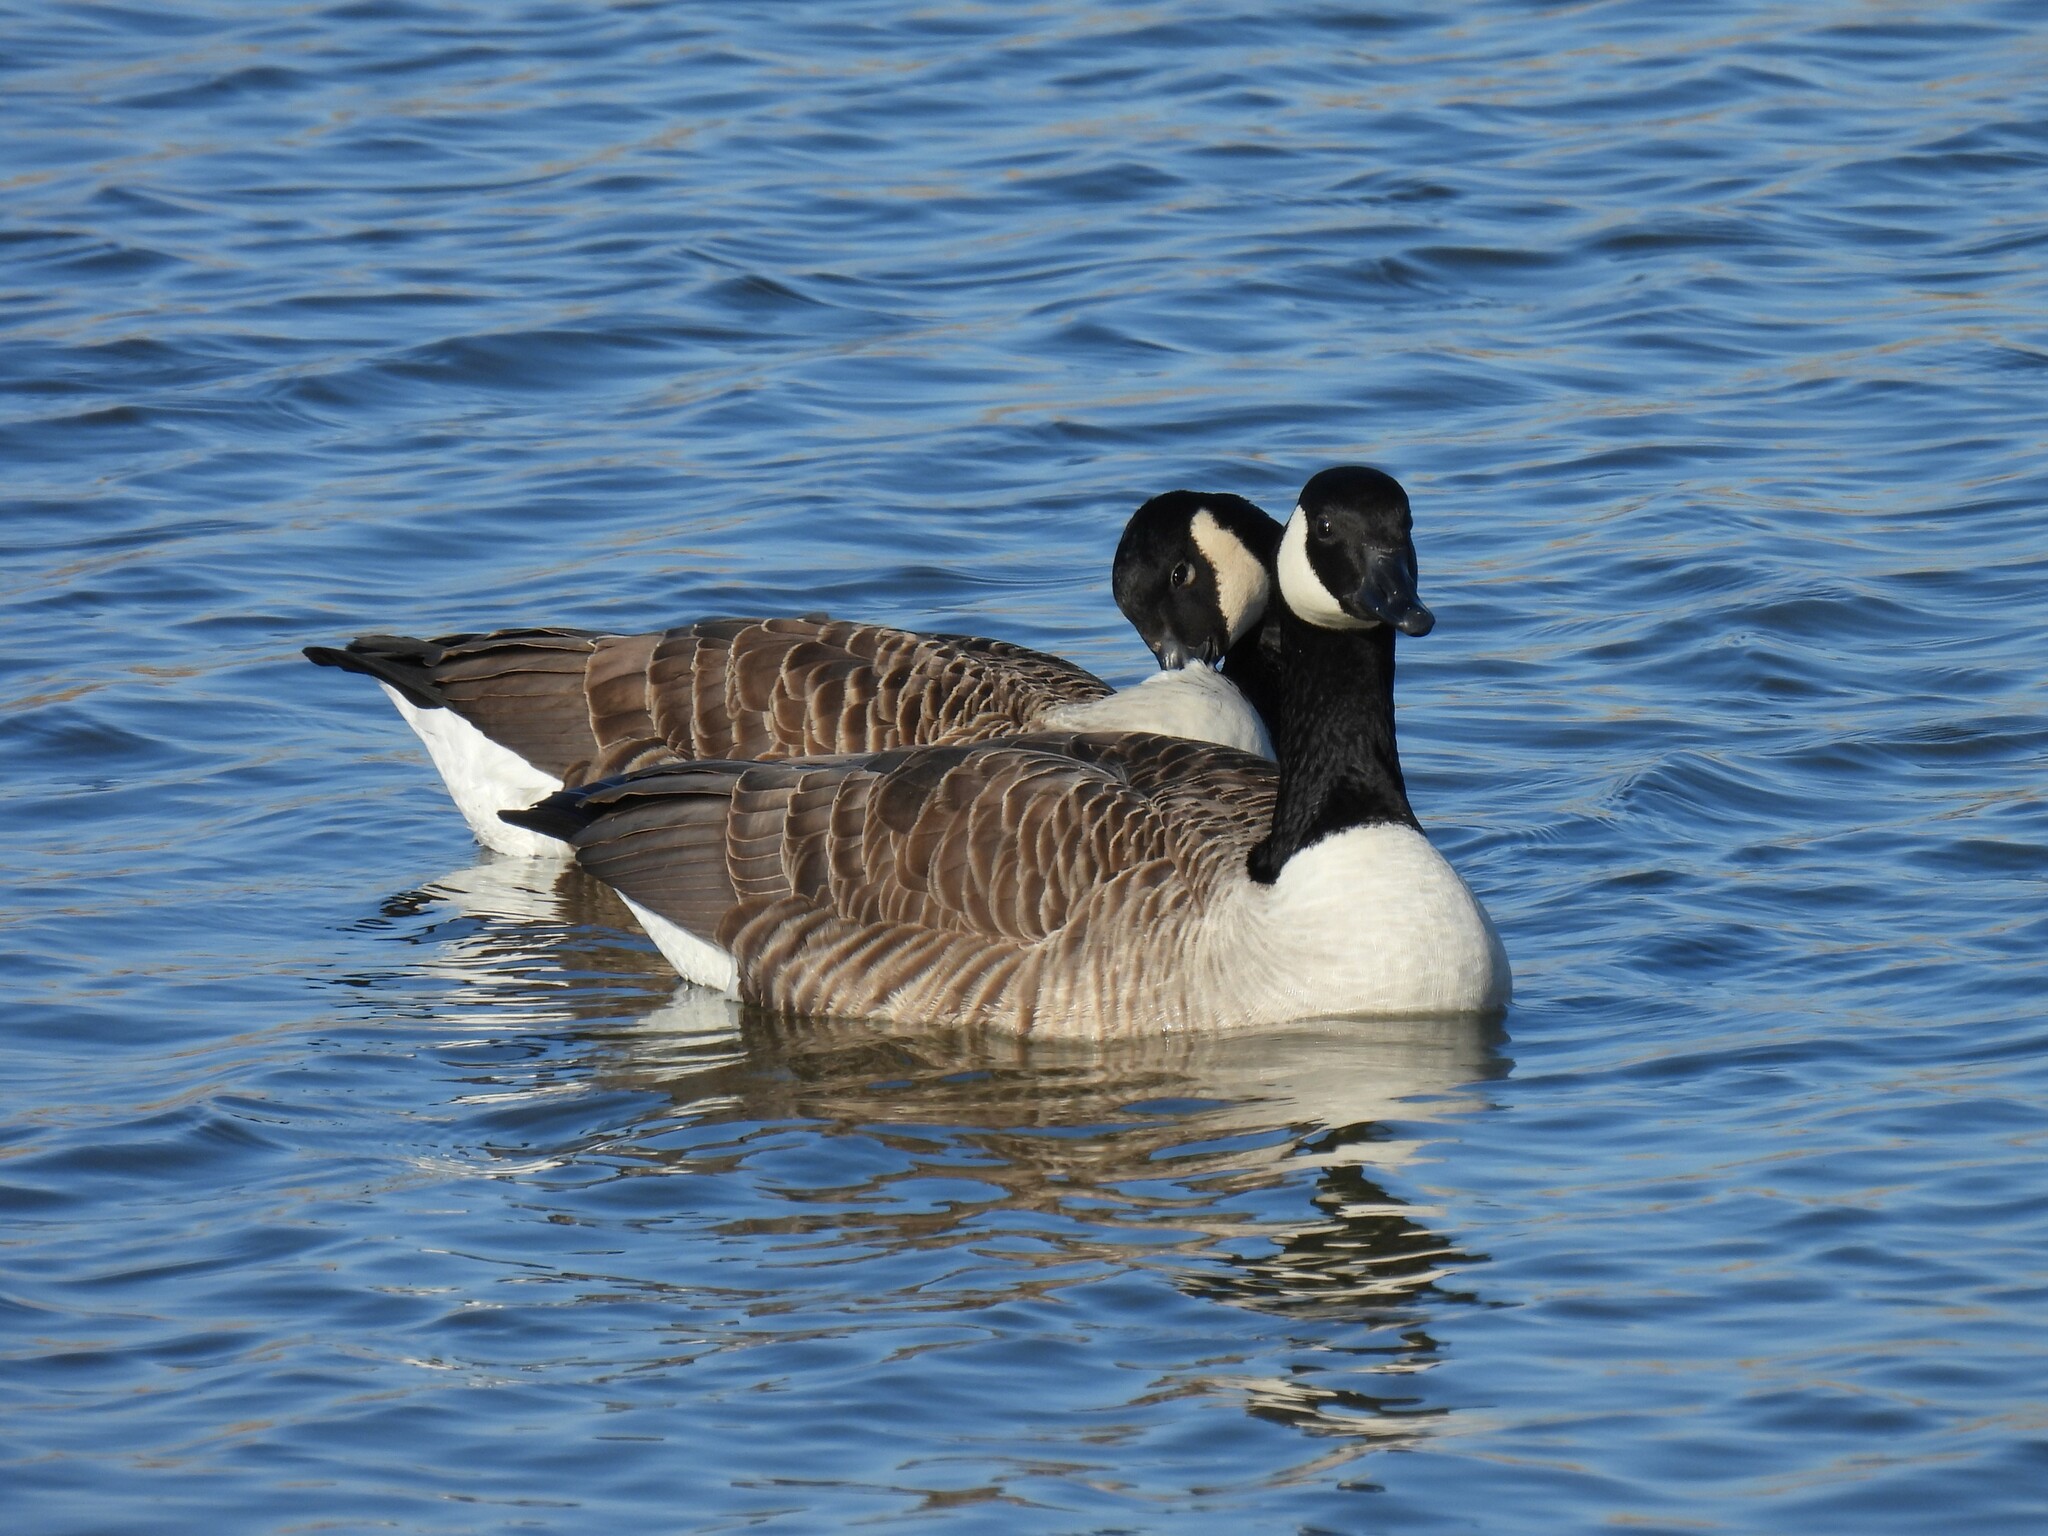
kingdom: Animalia
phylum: Chordata
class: Aves
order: Anseriformes
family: Anatidae
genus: Branta
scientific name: Branta canadensis
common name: Canada goose
